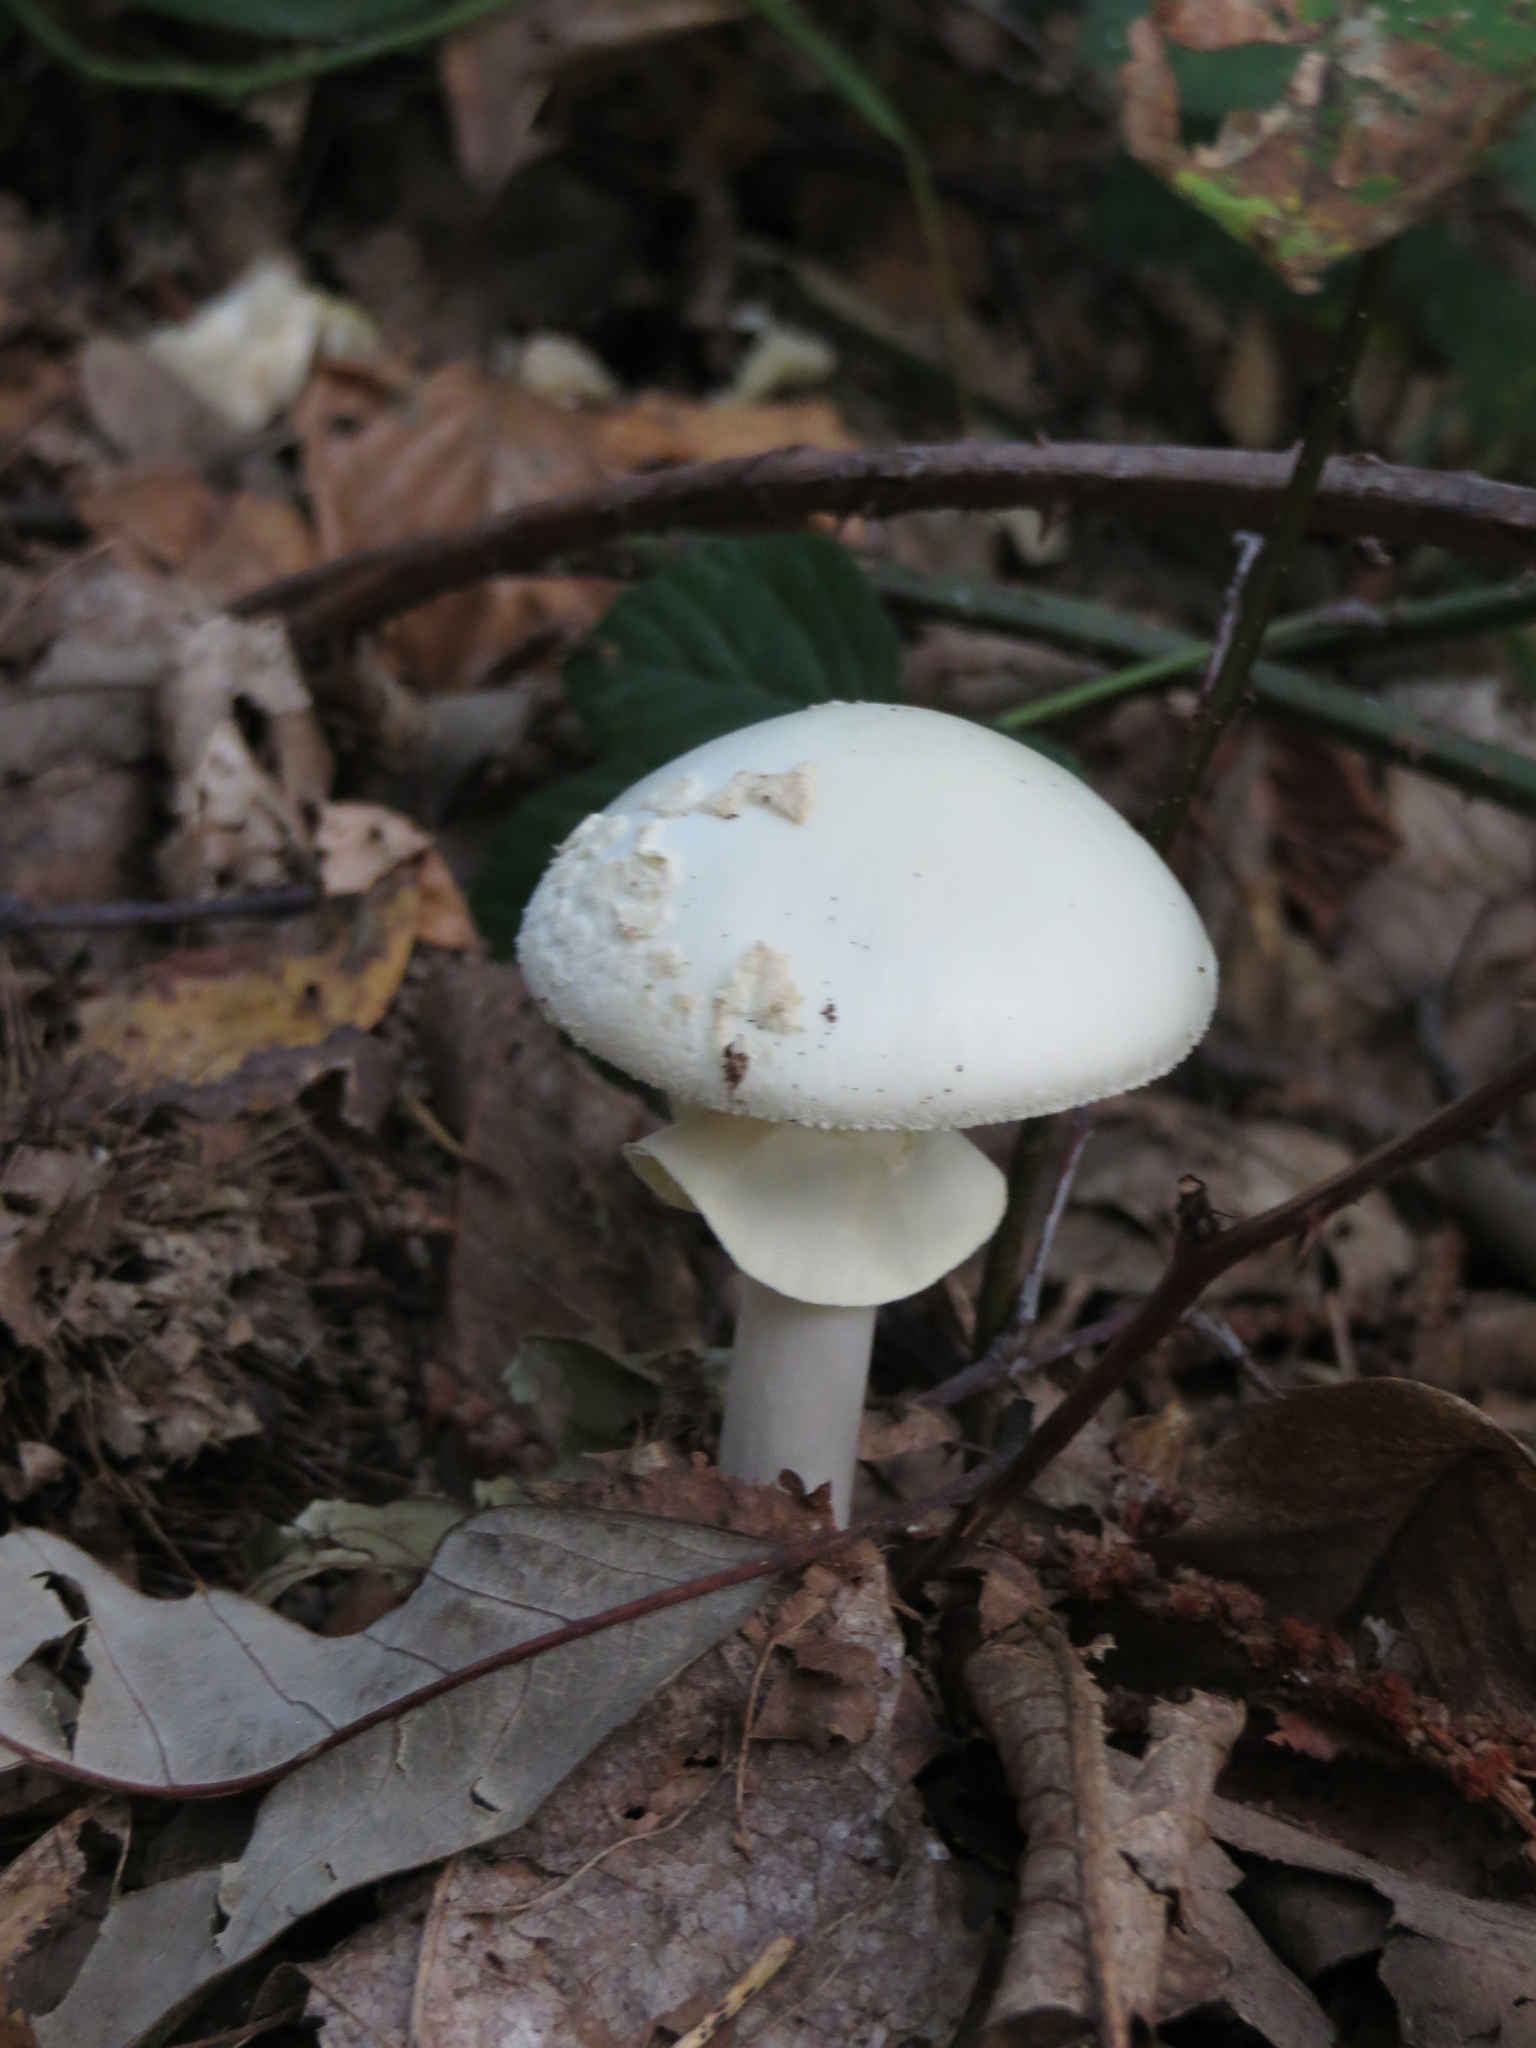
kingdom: Fungi
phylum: Basidiomycota
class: Agaricomycetes
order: Agaricales
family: Amanitaceae
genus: Amanita
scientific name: Amanita citrina
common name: False death-cap
